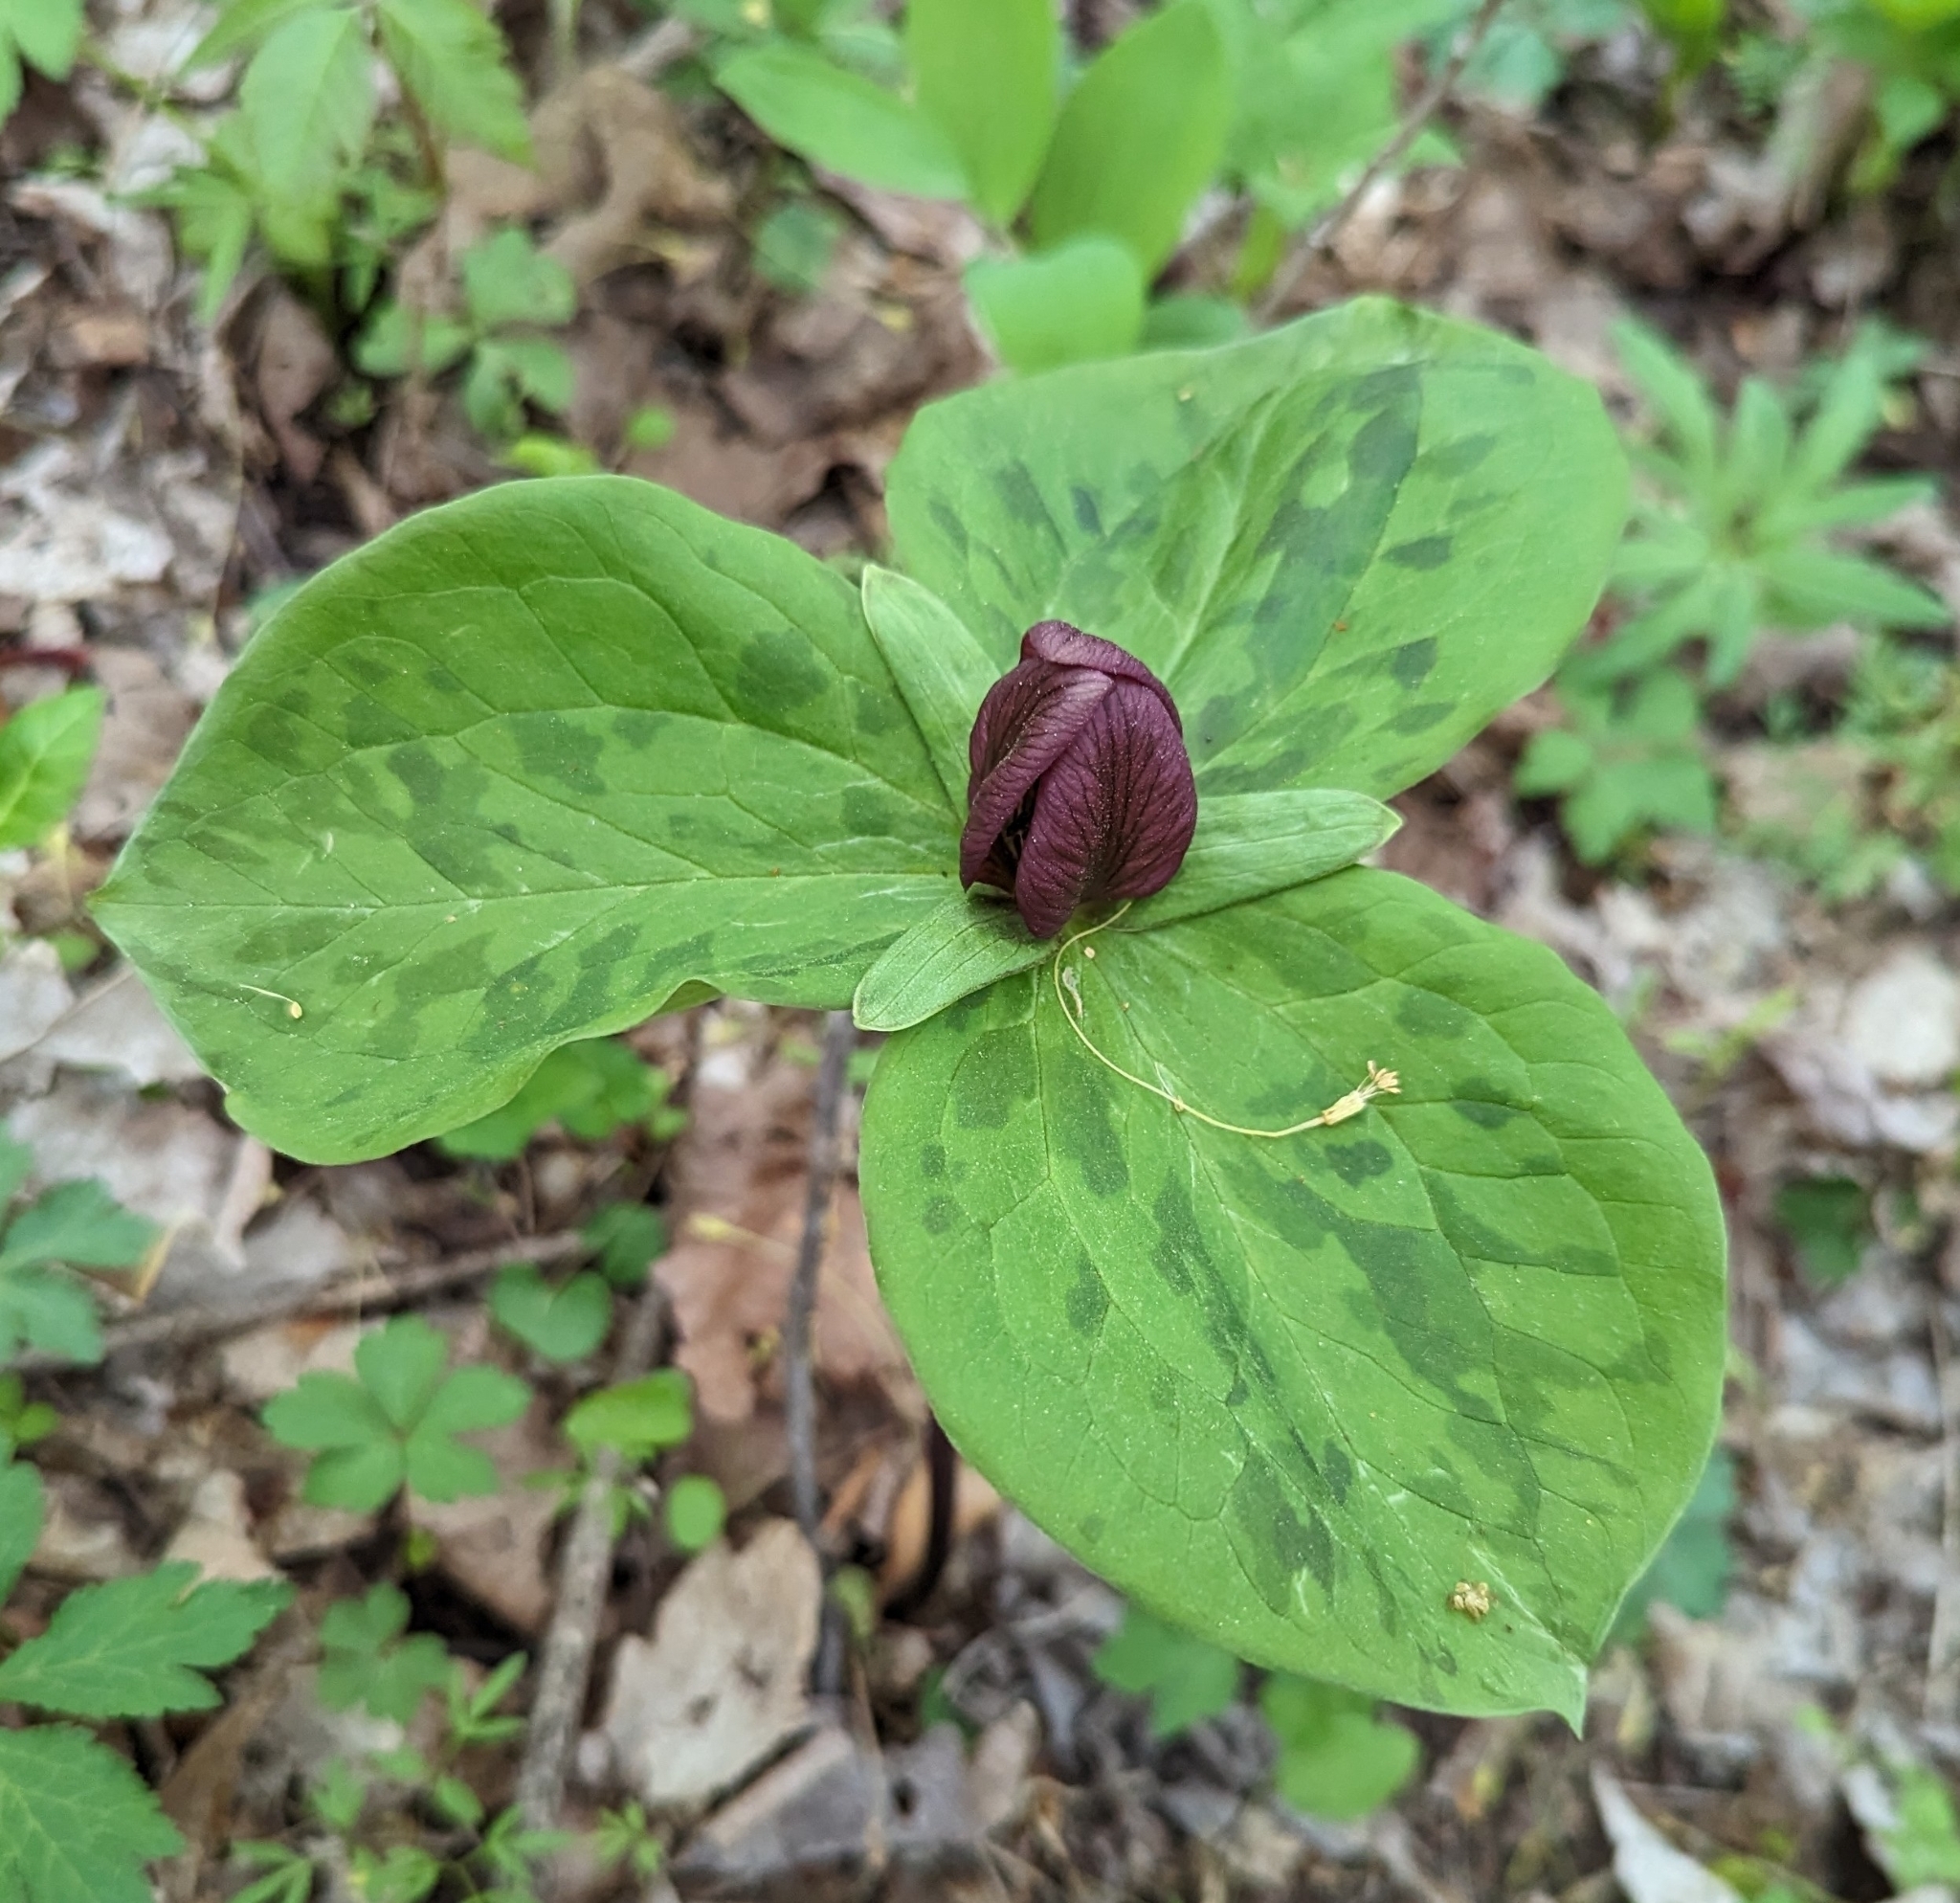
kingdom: Plantae
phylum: Tracheophyta
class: Liliopsida
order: Liliales
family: Melanthiaceae
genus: Trillium
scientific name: Trillium sessile
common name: Sessile trillium
